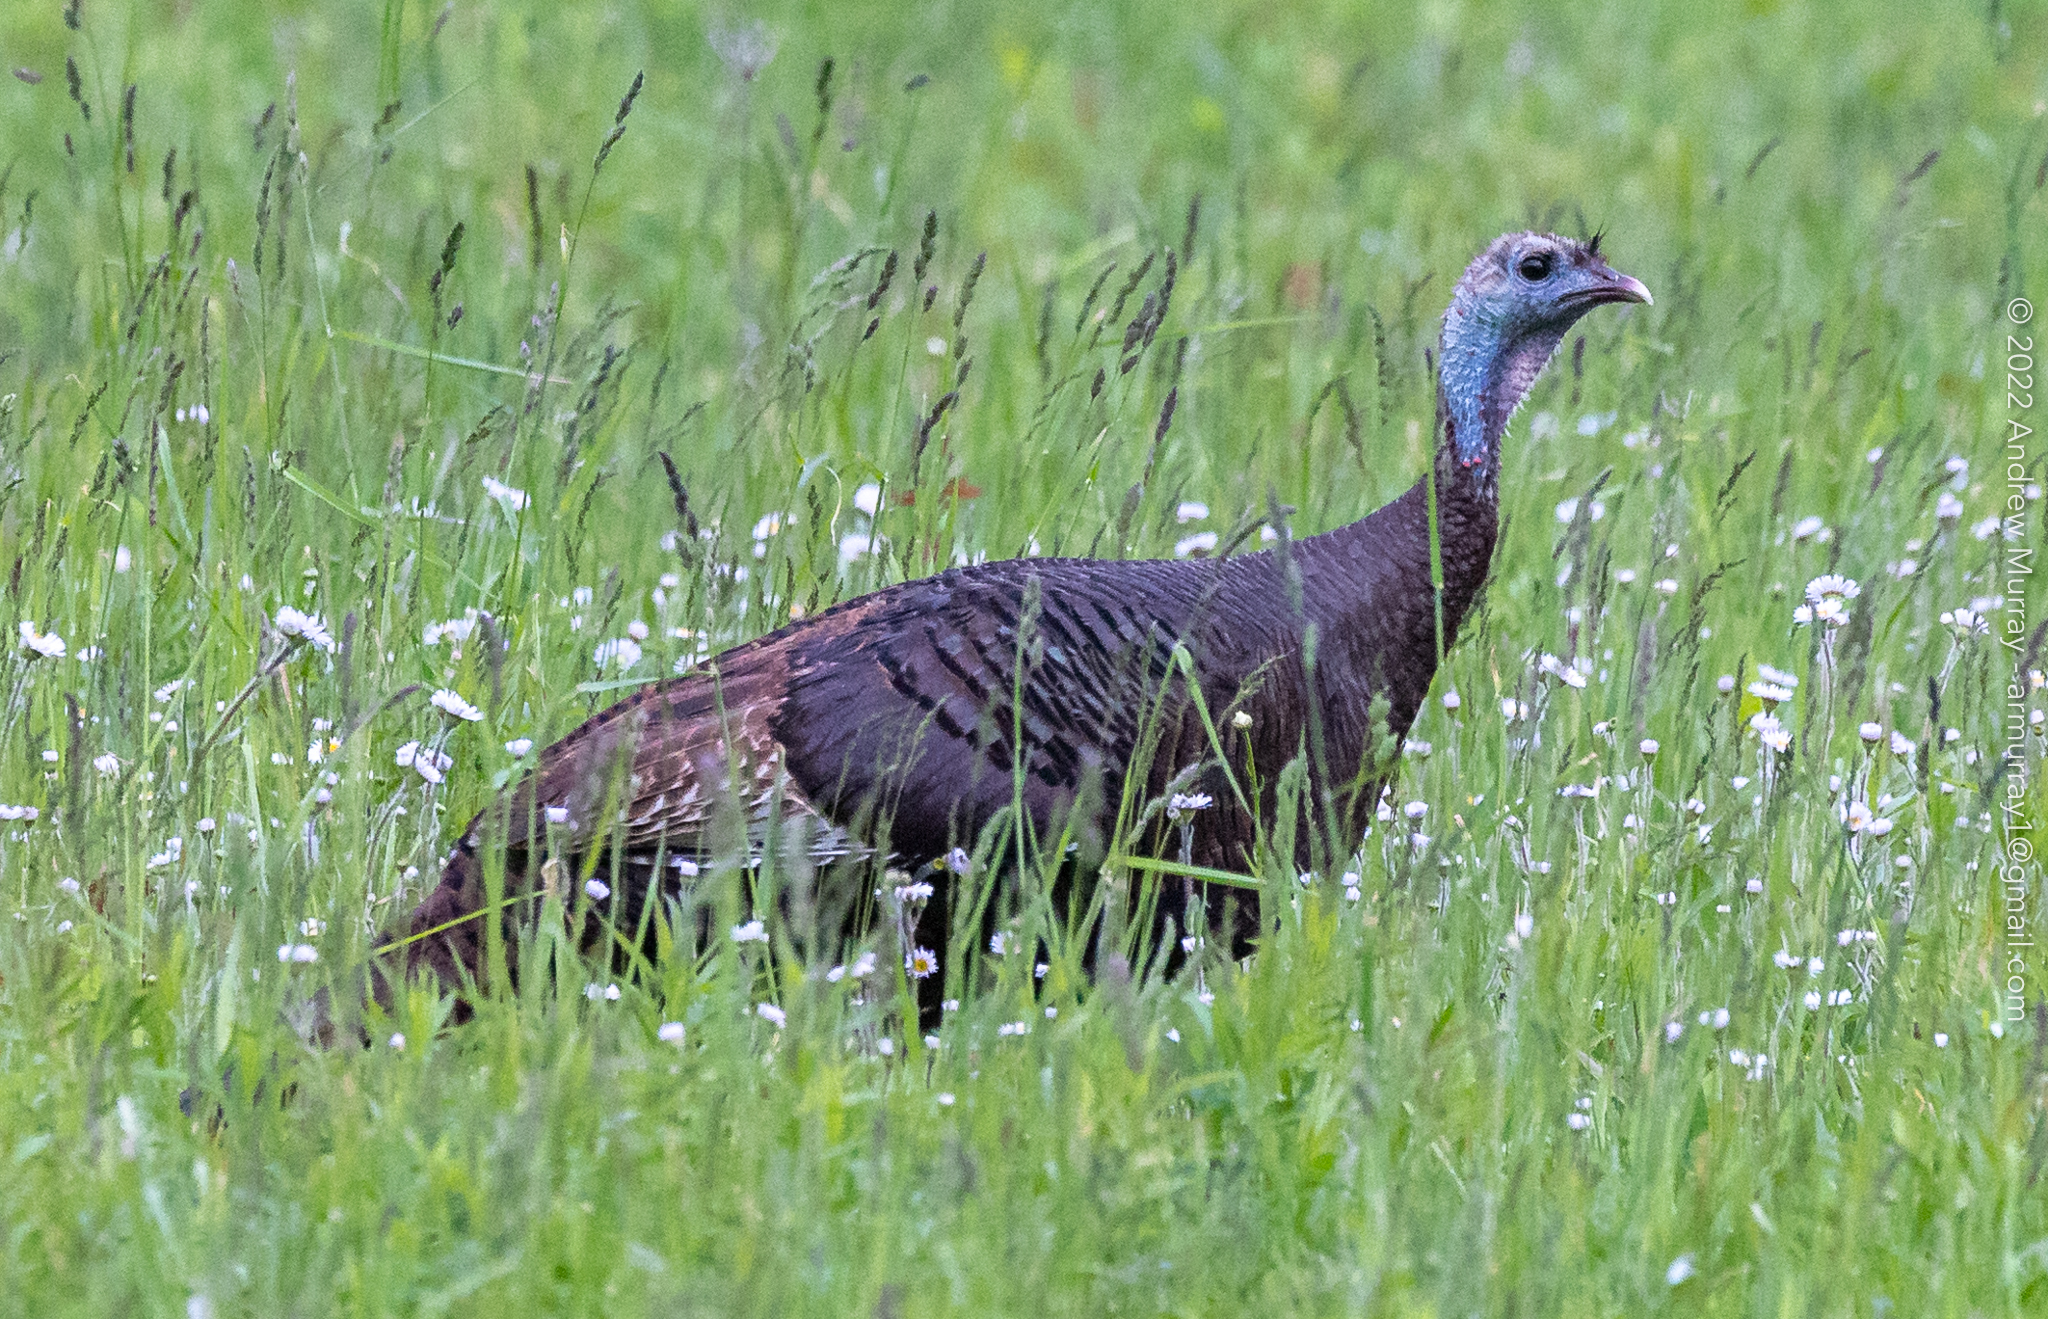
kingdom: Animalia
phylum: Chordata
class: Aves
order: Galliformes
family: Phasianidae
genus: Meleagris
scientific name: Meleagris gallopavo
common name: Wild turkey
